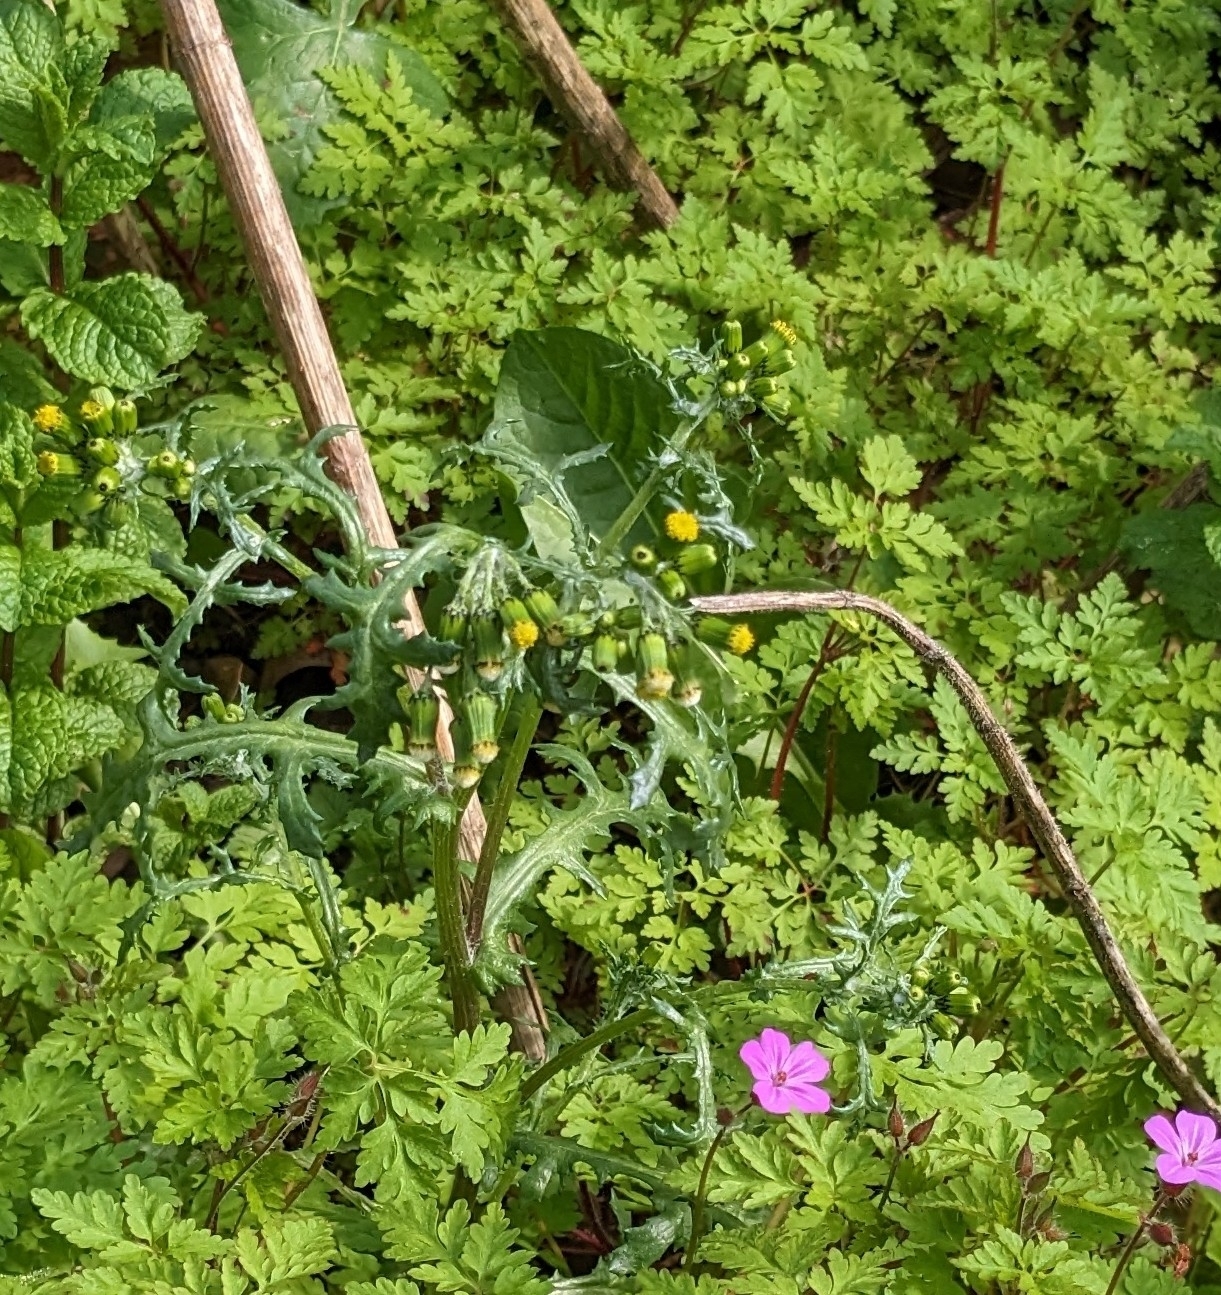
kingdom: Plantae
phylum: Tracheophyta
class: Magnoliopsida
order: Asterales
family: Asteraceae
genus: Senecio
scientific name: Senecio vulgaris
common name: Old-man-in-the-spring
